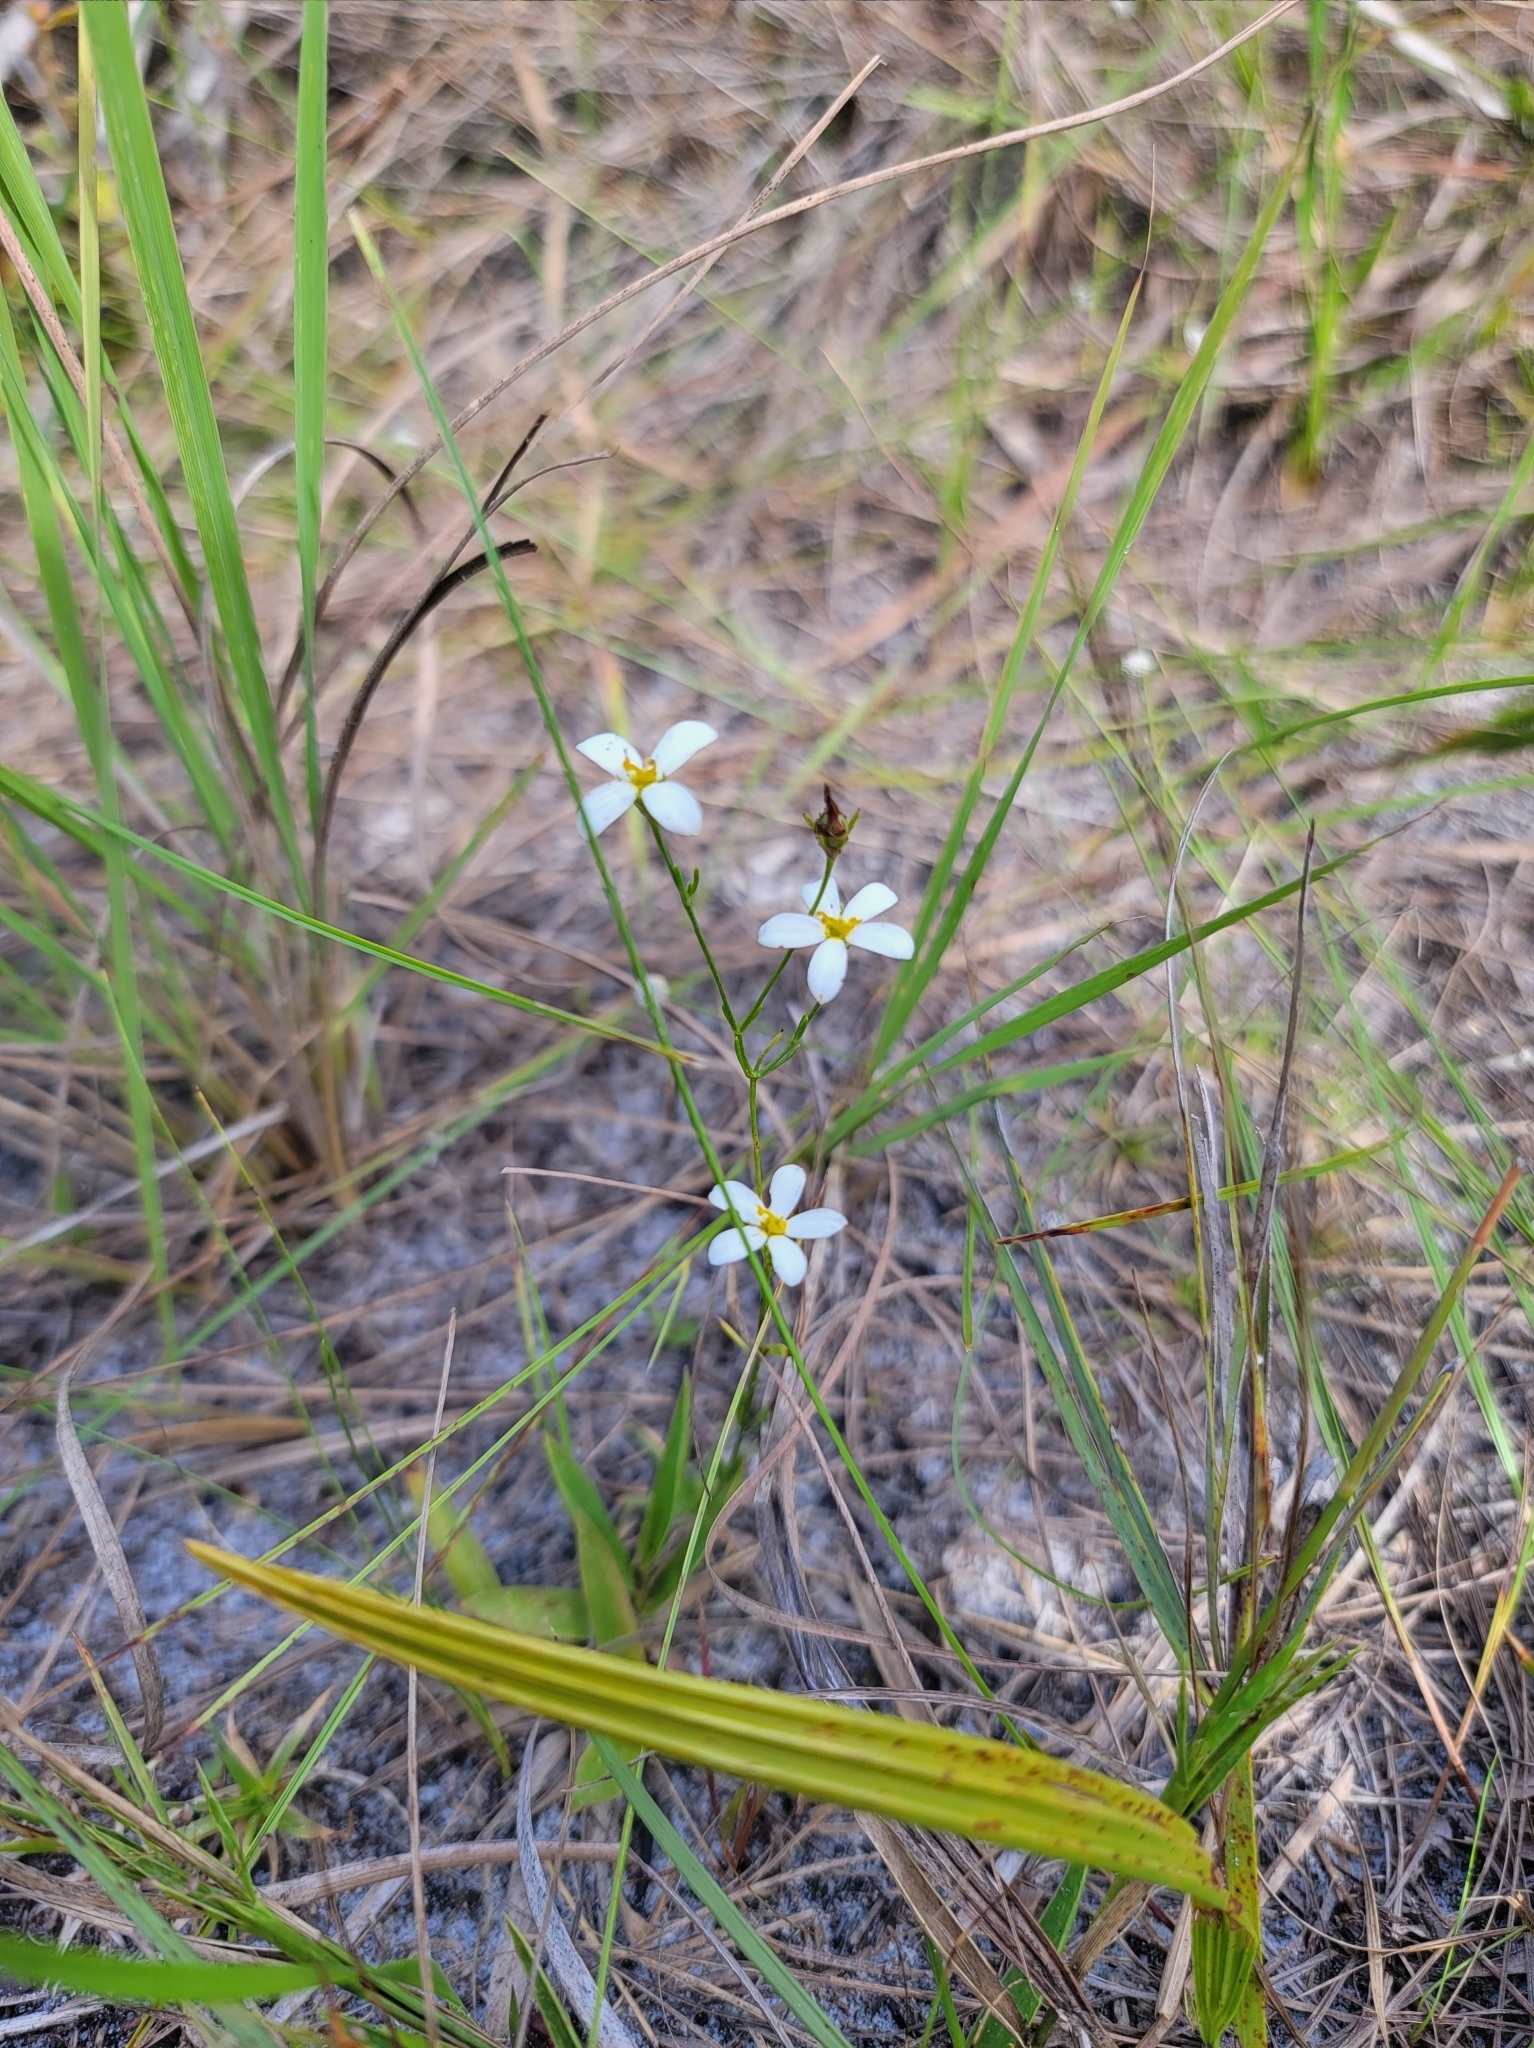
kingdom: Plantae
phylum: Tracheophyta
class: Magnoliopsida
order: Gentianales
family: Gentianaceae
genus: Sabatia
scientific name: Sabatia brevifolia
